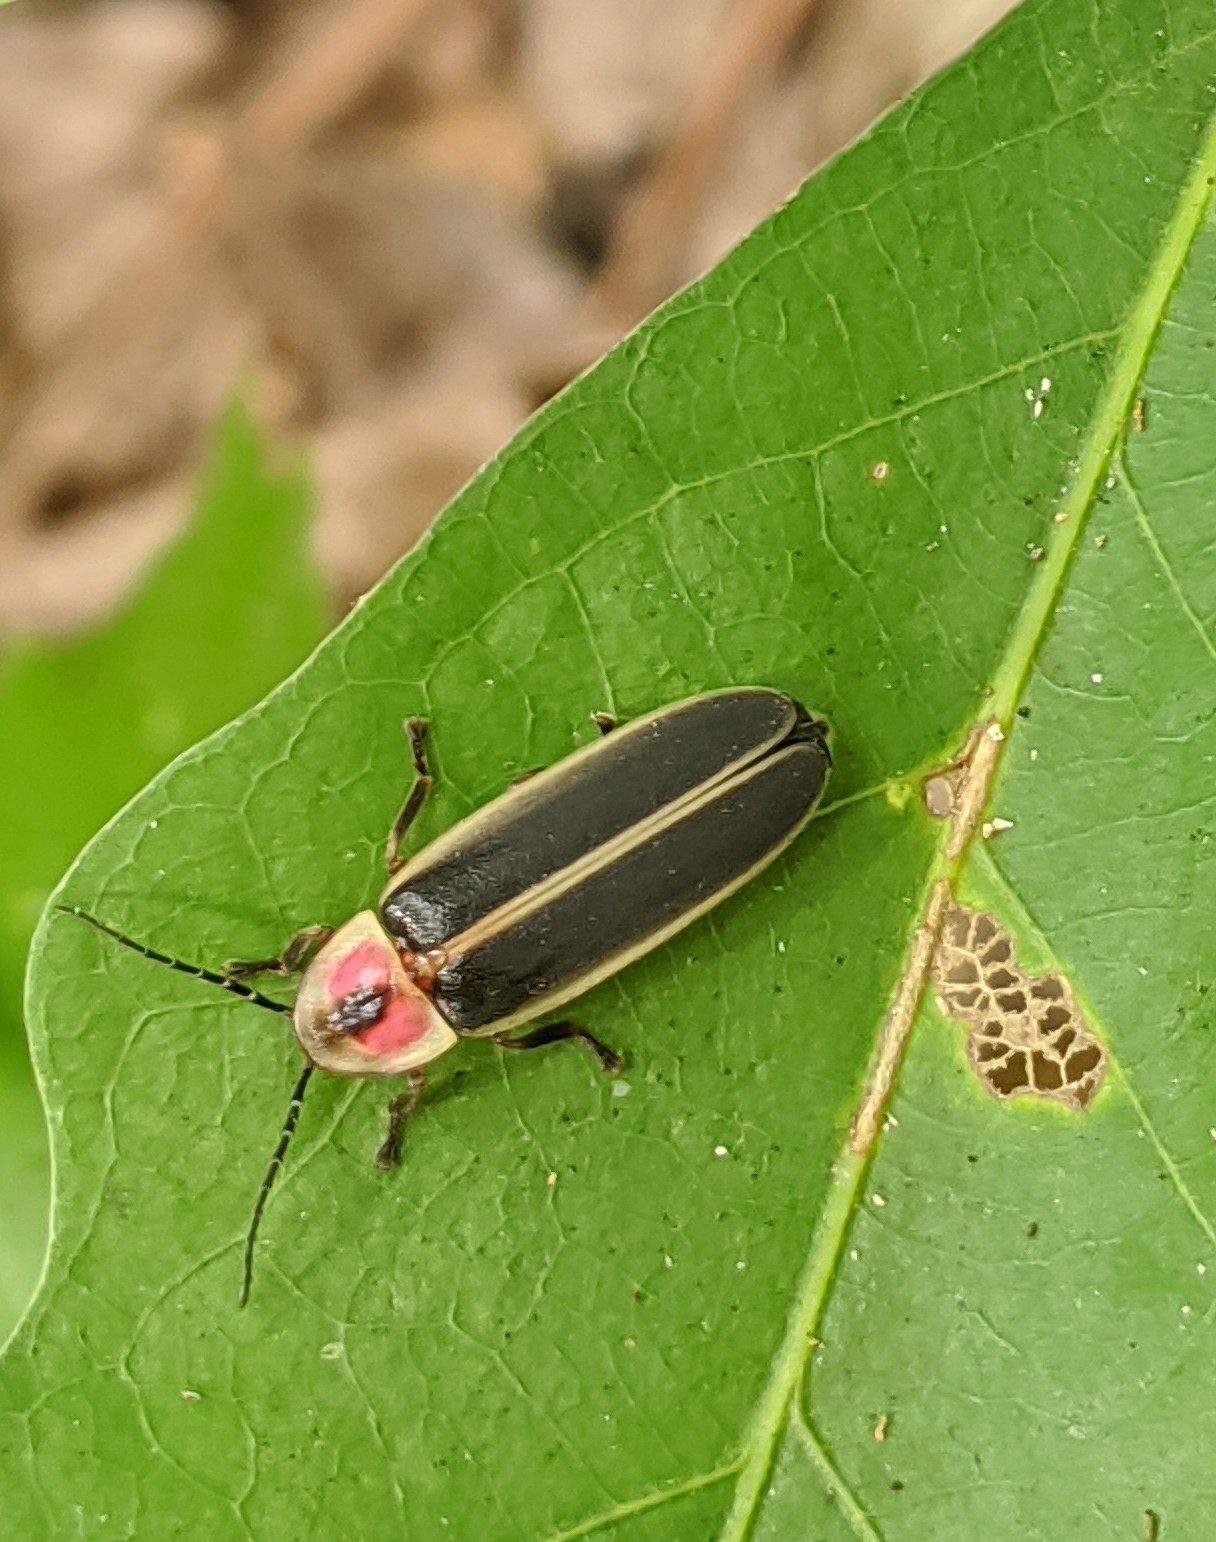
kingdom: Animalia
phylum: Arthropoda
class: Insecta
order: Coleoptera
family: Lampyridae
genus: Photinus
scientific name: Photinus pyralis
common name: Big dipper firefly
